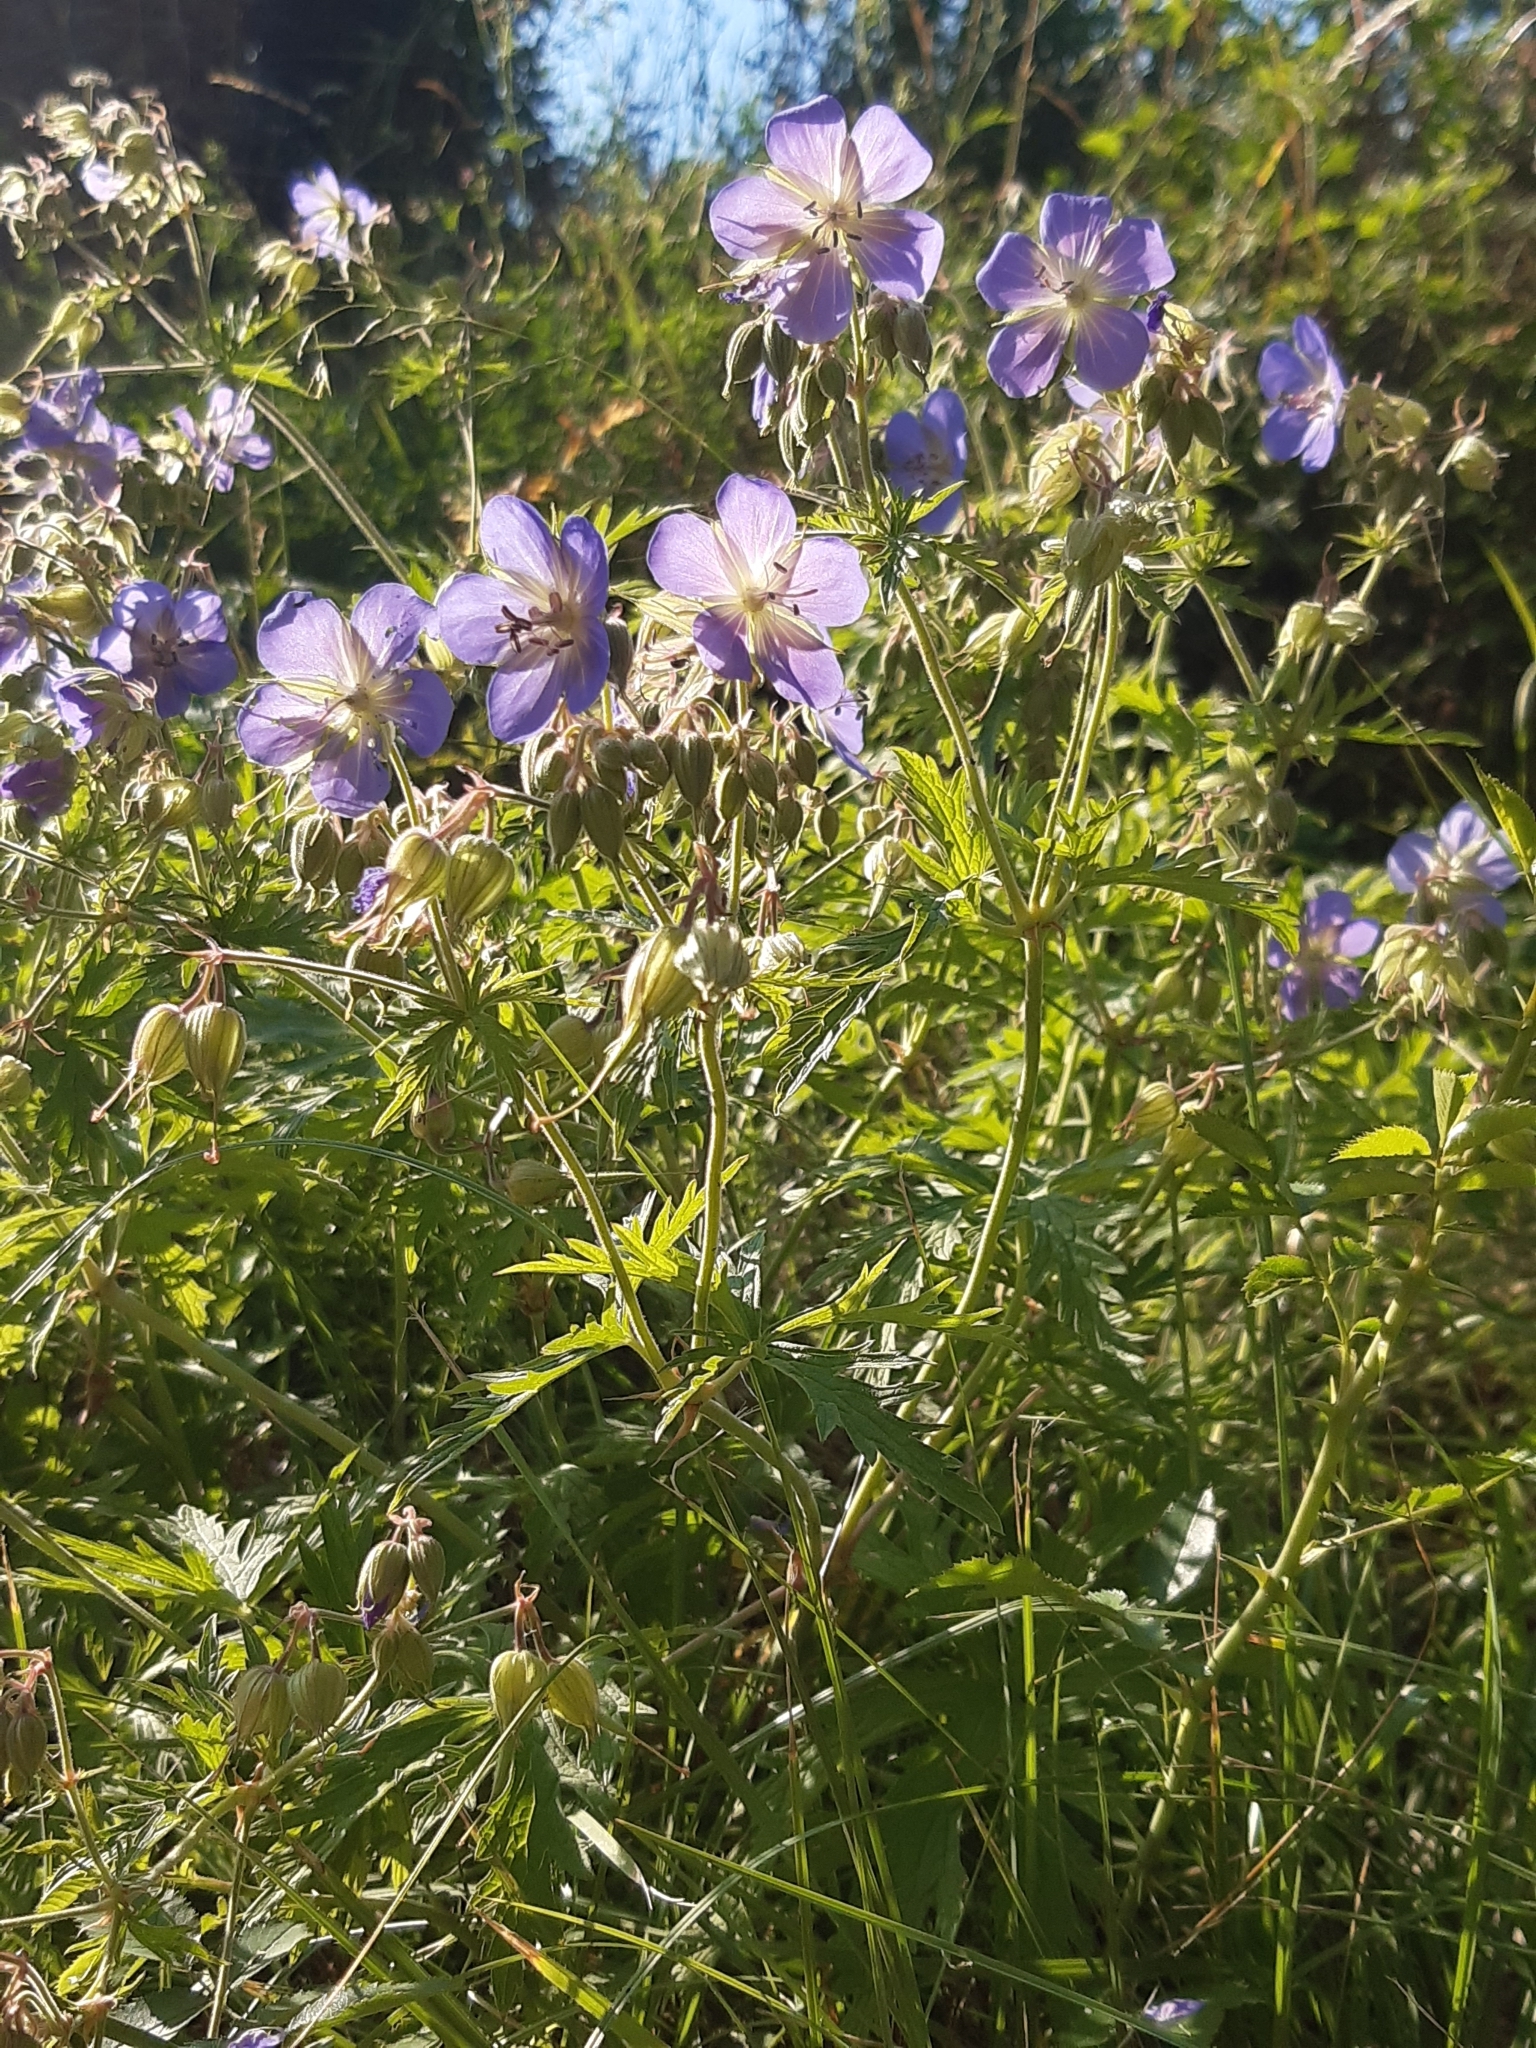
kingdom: Plantae
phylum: Tracheophyta
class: Magnoliopsida
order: Geraniales
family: Geraniaceae
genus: Geranium
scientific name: Geranium pratense
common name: Meadow crane's-bill
